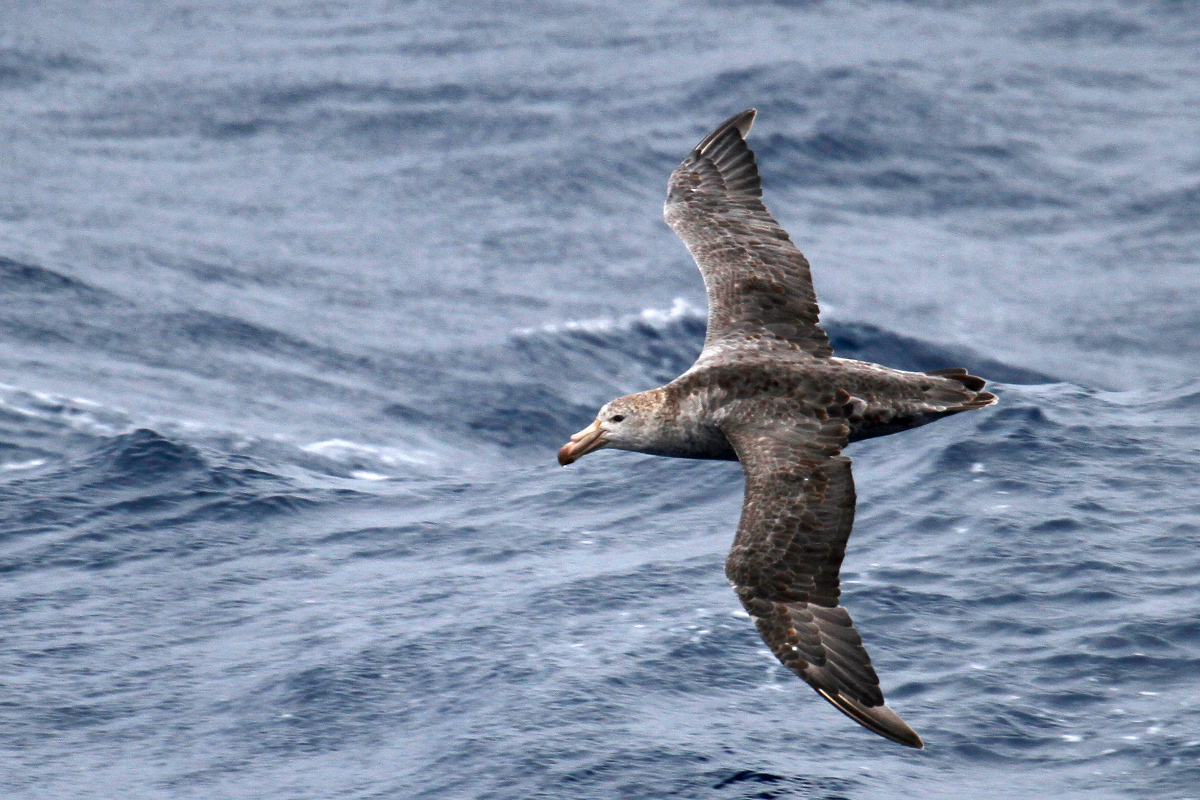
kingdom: Animalia
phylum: Chordata
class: Aves
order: Procellariiformes
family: Procellariidae
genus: Macronectes
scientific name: Macronectes halli
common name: Northern giant petrel
